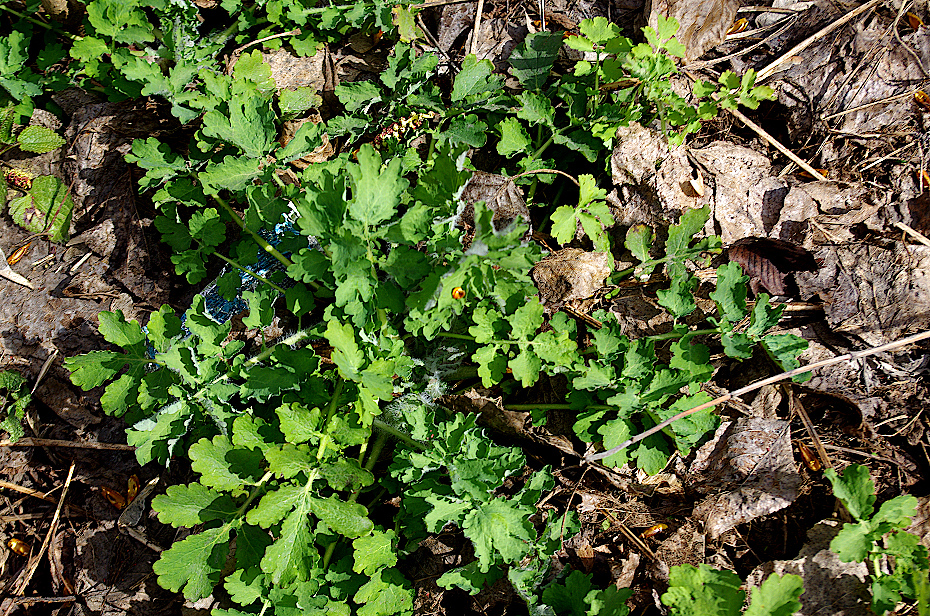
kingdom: Plantae
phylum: Tracheophyta
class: Magnoliopsida
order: Ranunculales
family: Papaveraceae
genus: Chelidonium
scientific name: Chelidonium majus
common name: Greater celandine
